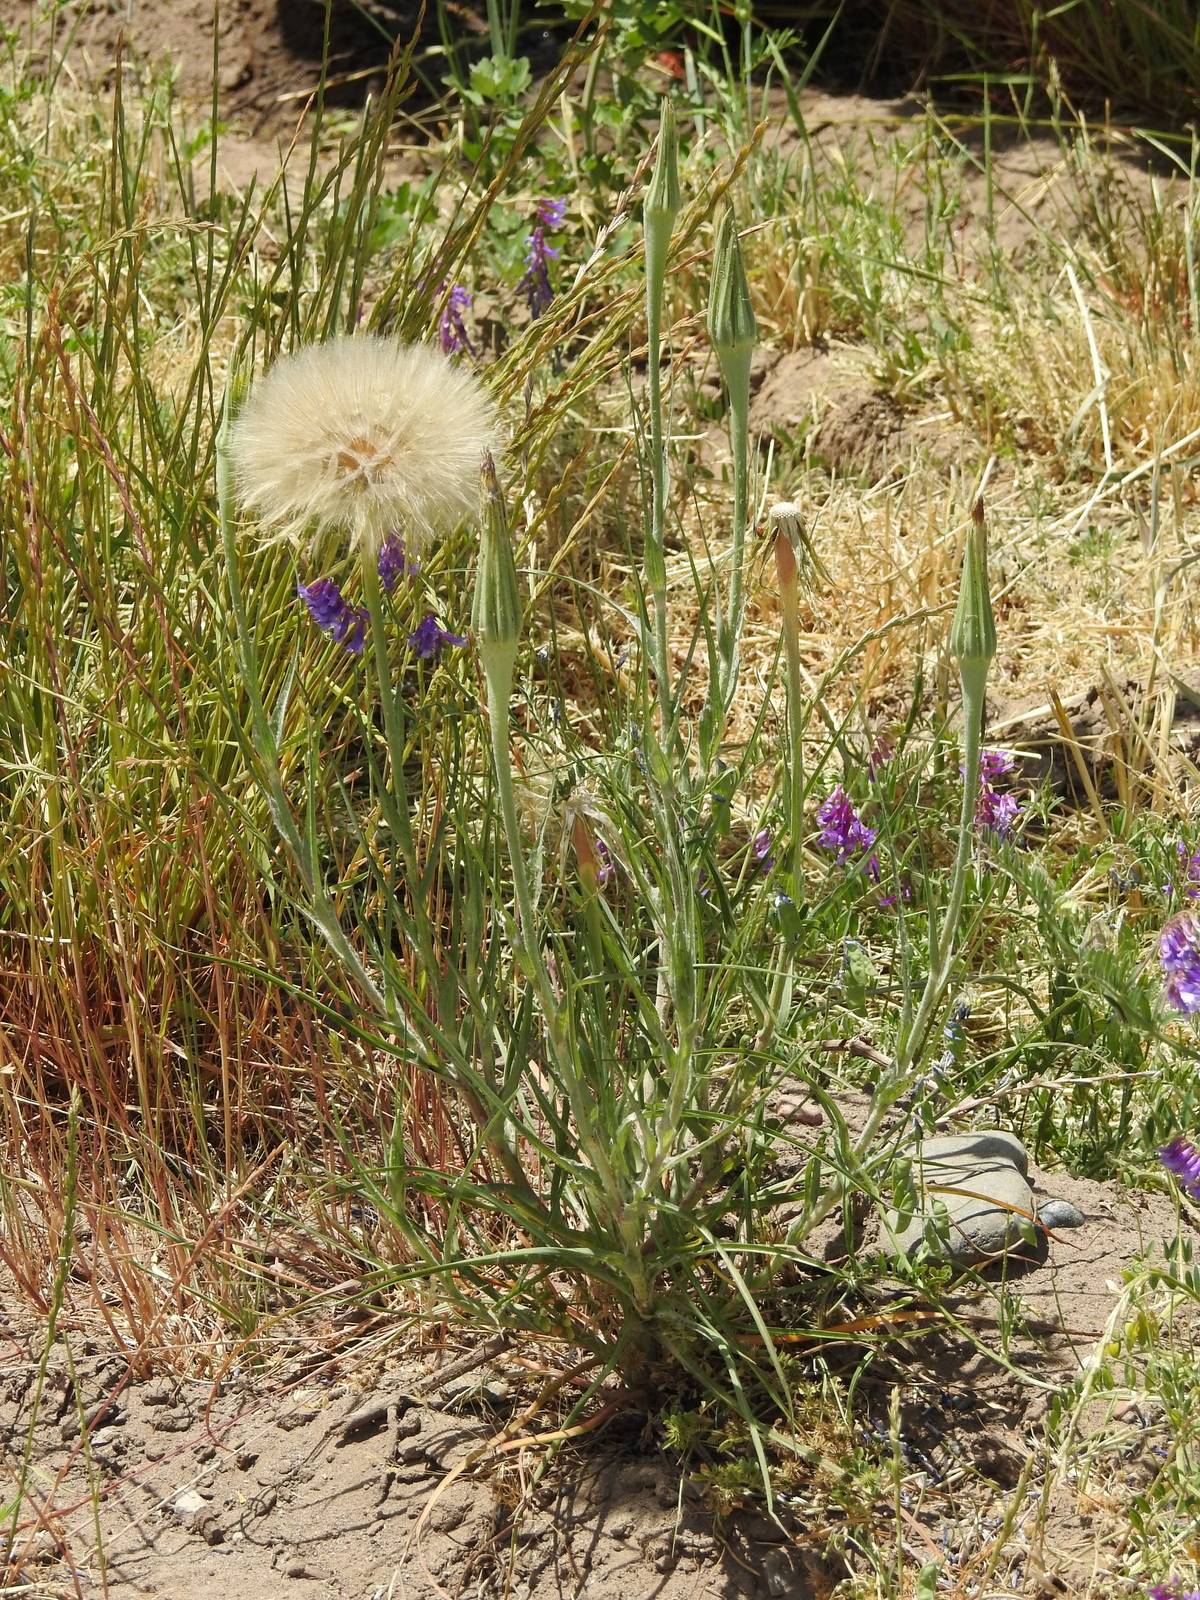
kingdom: Plantae
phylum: Tracheophyta
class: Magnoliopsida
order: Asterales
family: Asteraceae
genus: Tragopogon
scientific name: Tragopogon dubius
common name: Yellow salsify
